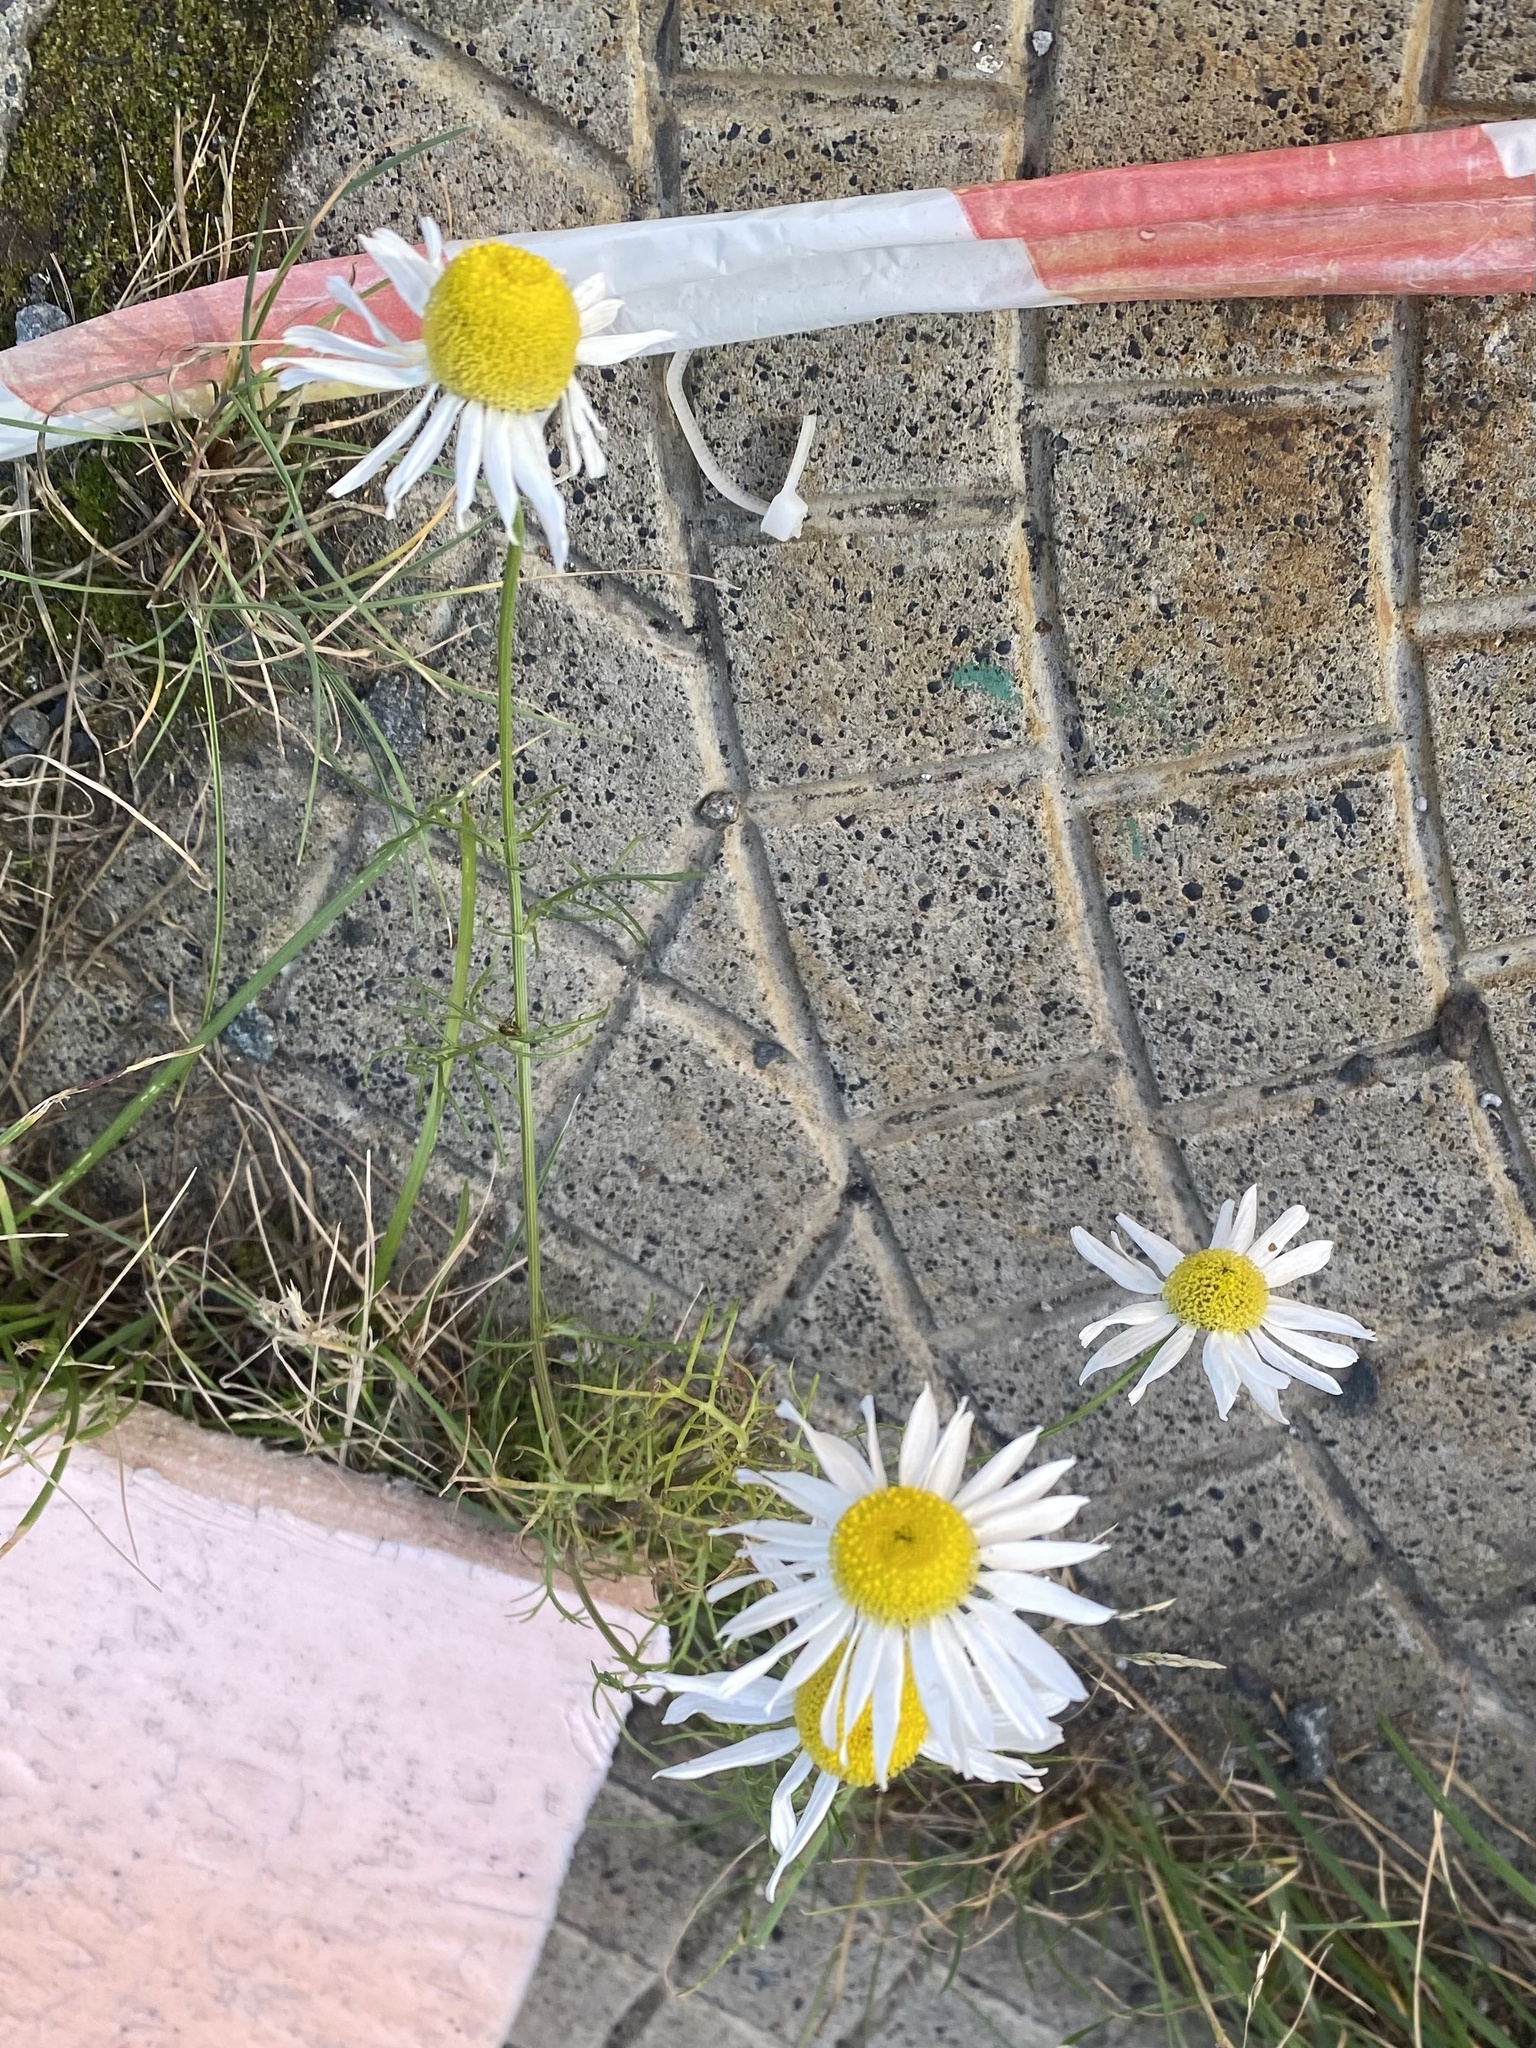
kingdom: Plantae
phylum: Tracheophyta
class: Magnoliopsida
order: Asterales
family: Asteraceae
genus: Tripleurospermum
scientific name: Tripleurospermum inodorum
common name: Scentless mayweed
